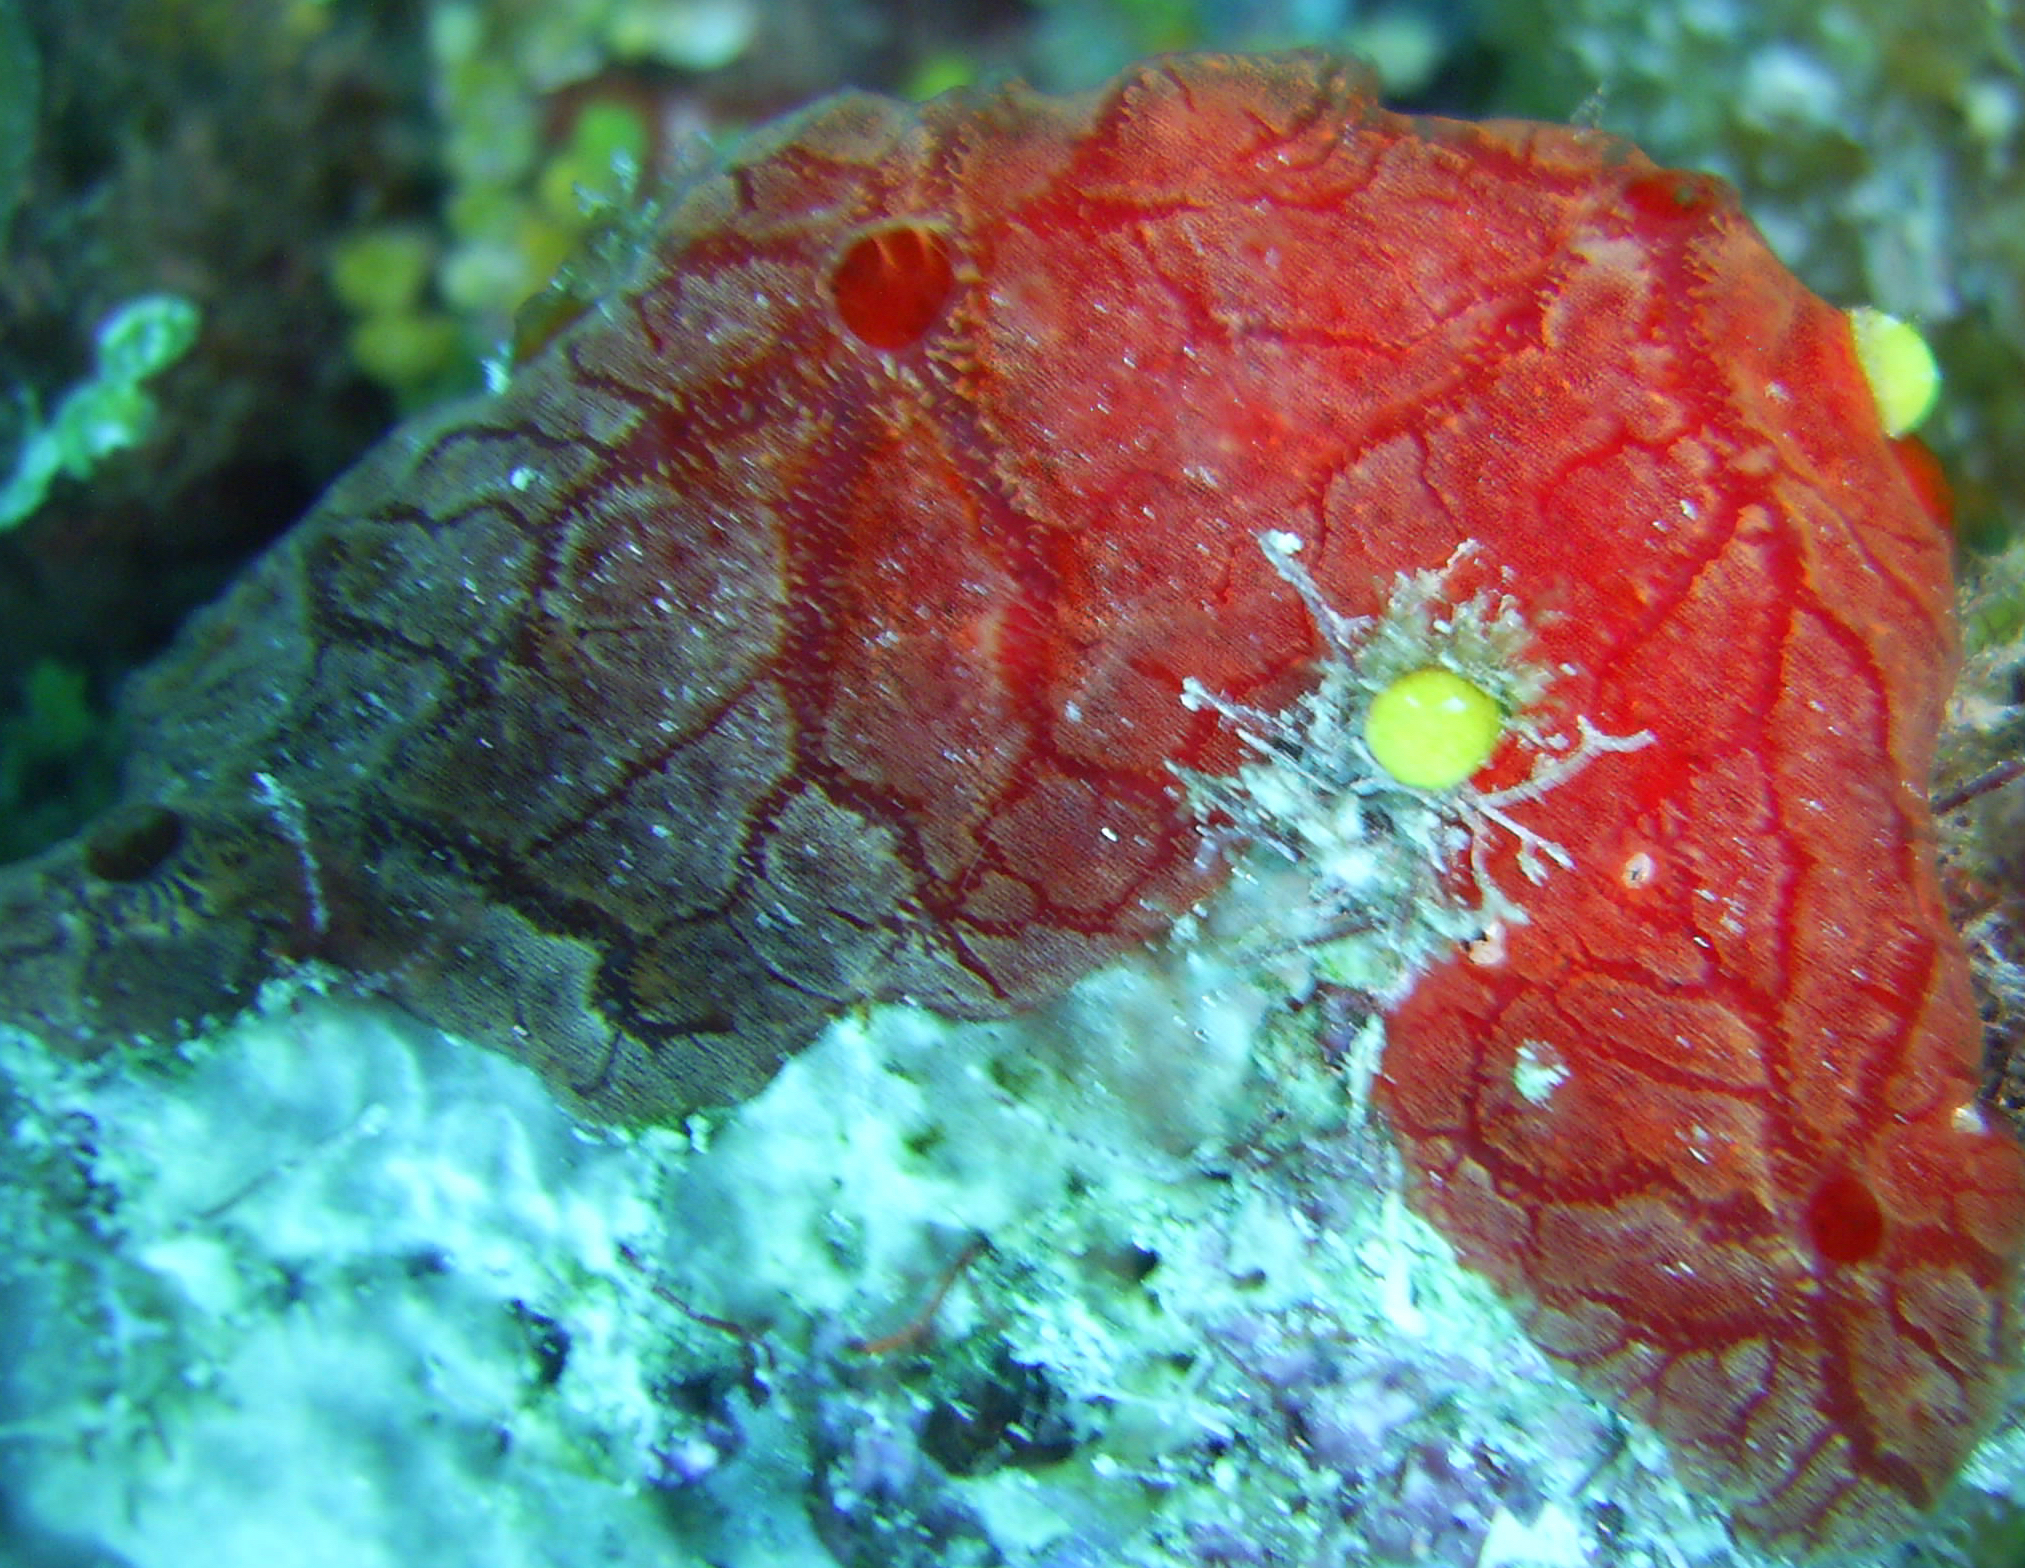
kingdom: Animalia
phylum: Porifera
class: Demospongiae
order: Poecilosclerida
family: Crambeidae
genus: Monanchora
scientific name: Monanchora arbuscula
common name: Red-white marbled sponge
